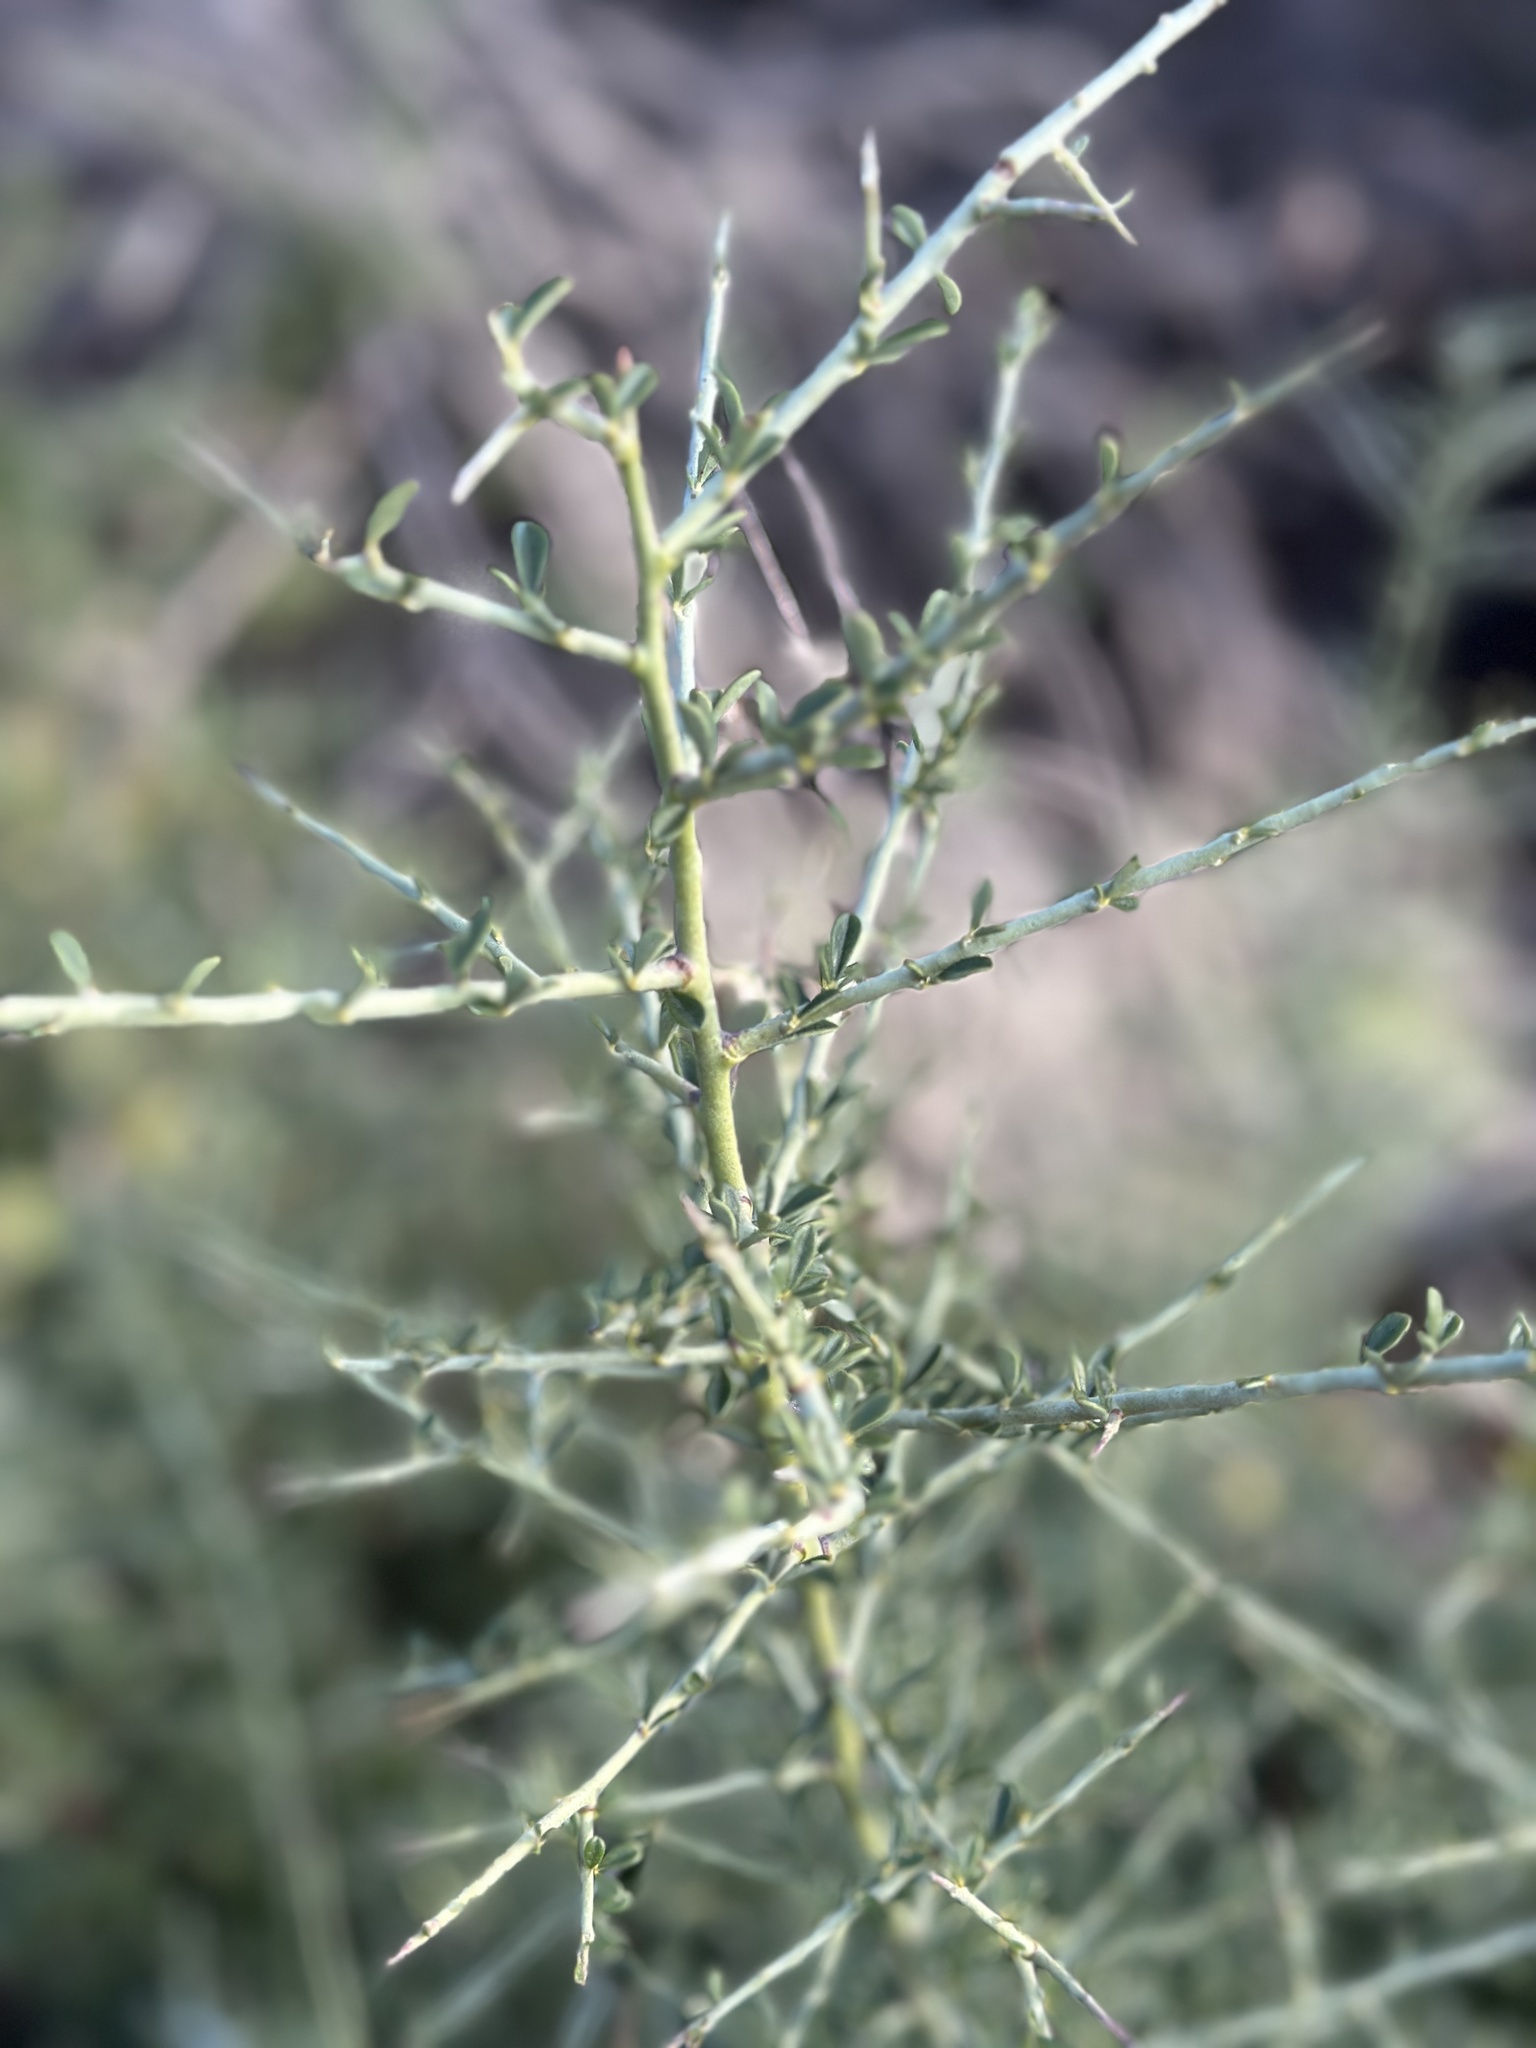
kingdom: Plantae
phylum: Tracheophyta
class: Magnoliopsida
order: Fabales
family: Fabaceae
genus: Pickeringia
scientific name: Pickeringia montana
